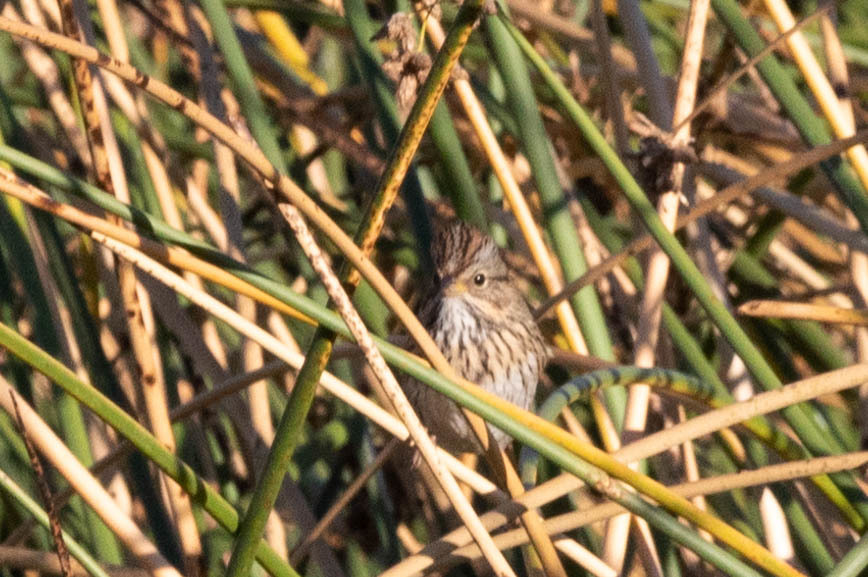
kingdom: Animalia
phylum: Chordata
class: Aves
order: Passeriformes
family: Passerellidae
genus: Melospiza
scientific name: Melospiza lincolnii
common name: Lincoln's sparrow
